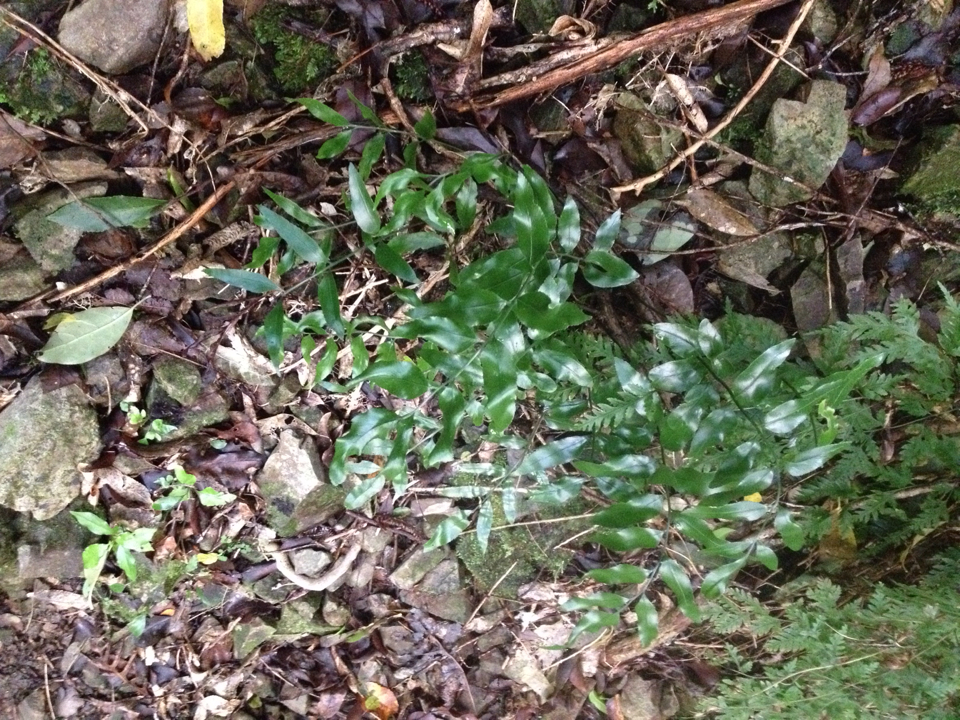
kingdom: Plantae
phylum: Tracheophyta
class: Polypodiopsida
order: Polypodiales
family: Aspleniaceae
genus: Asplenium
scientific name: Asplenium oblongifolium
